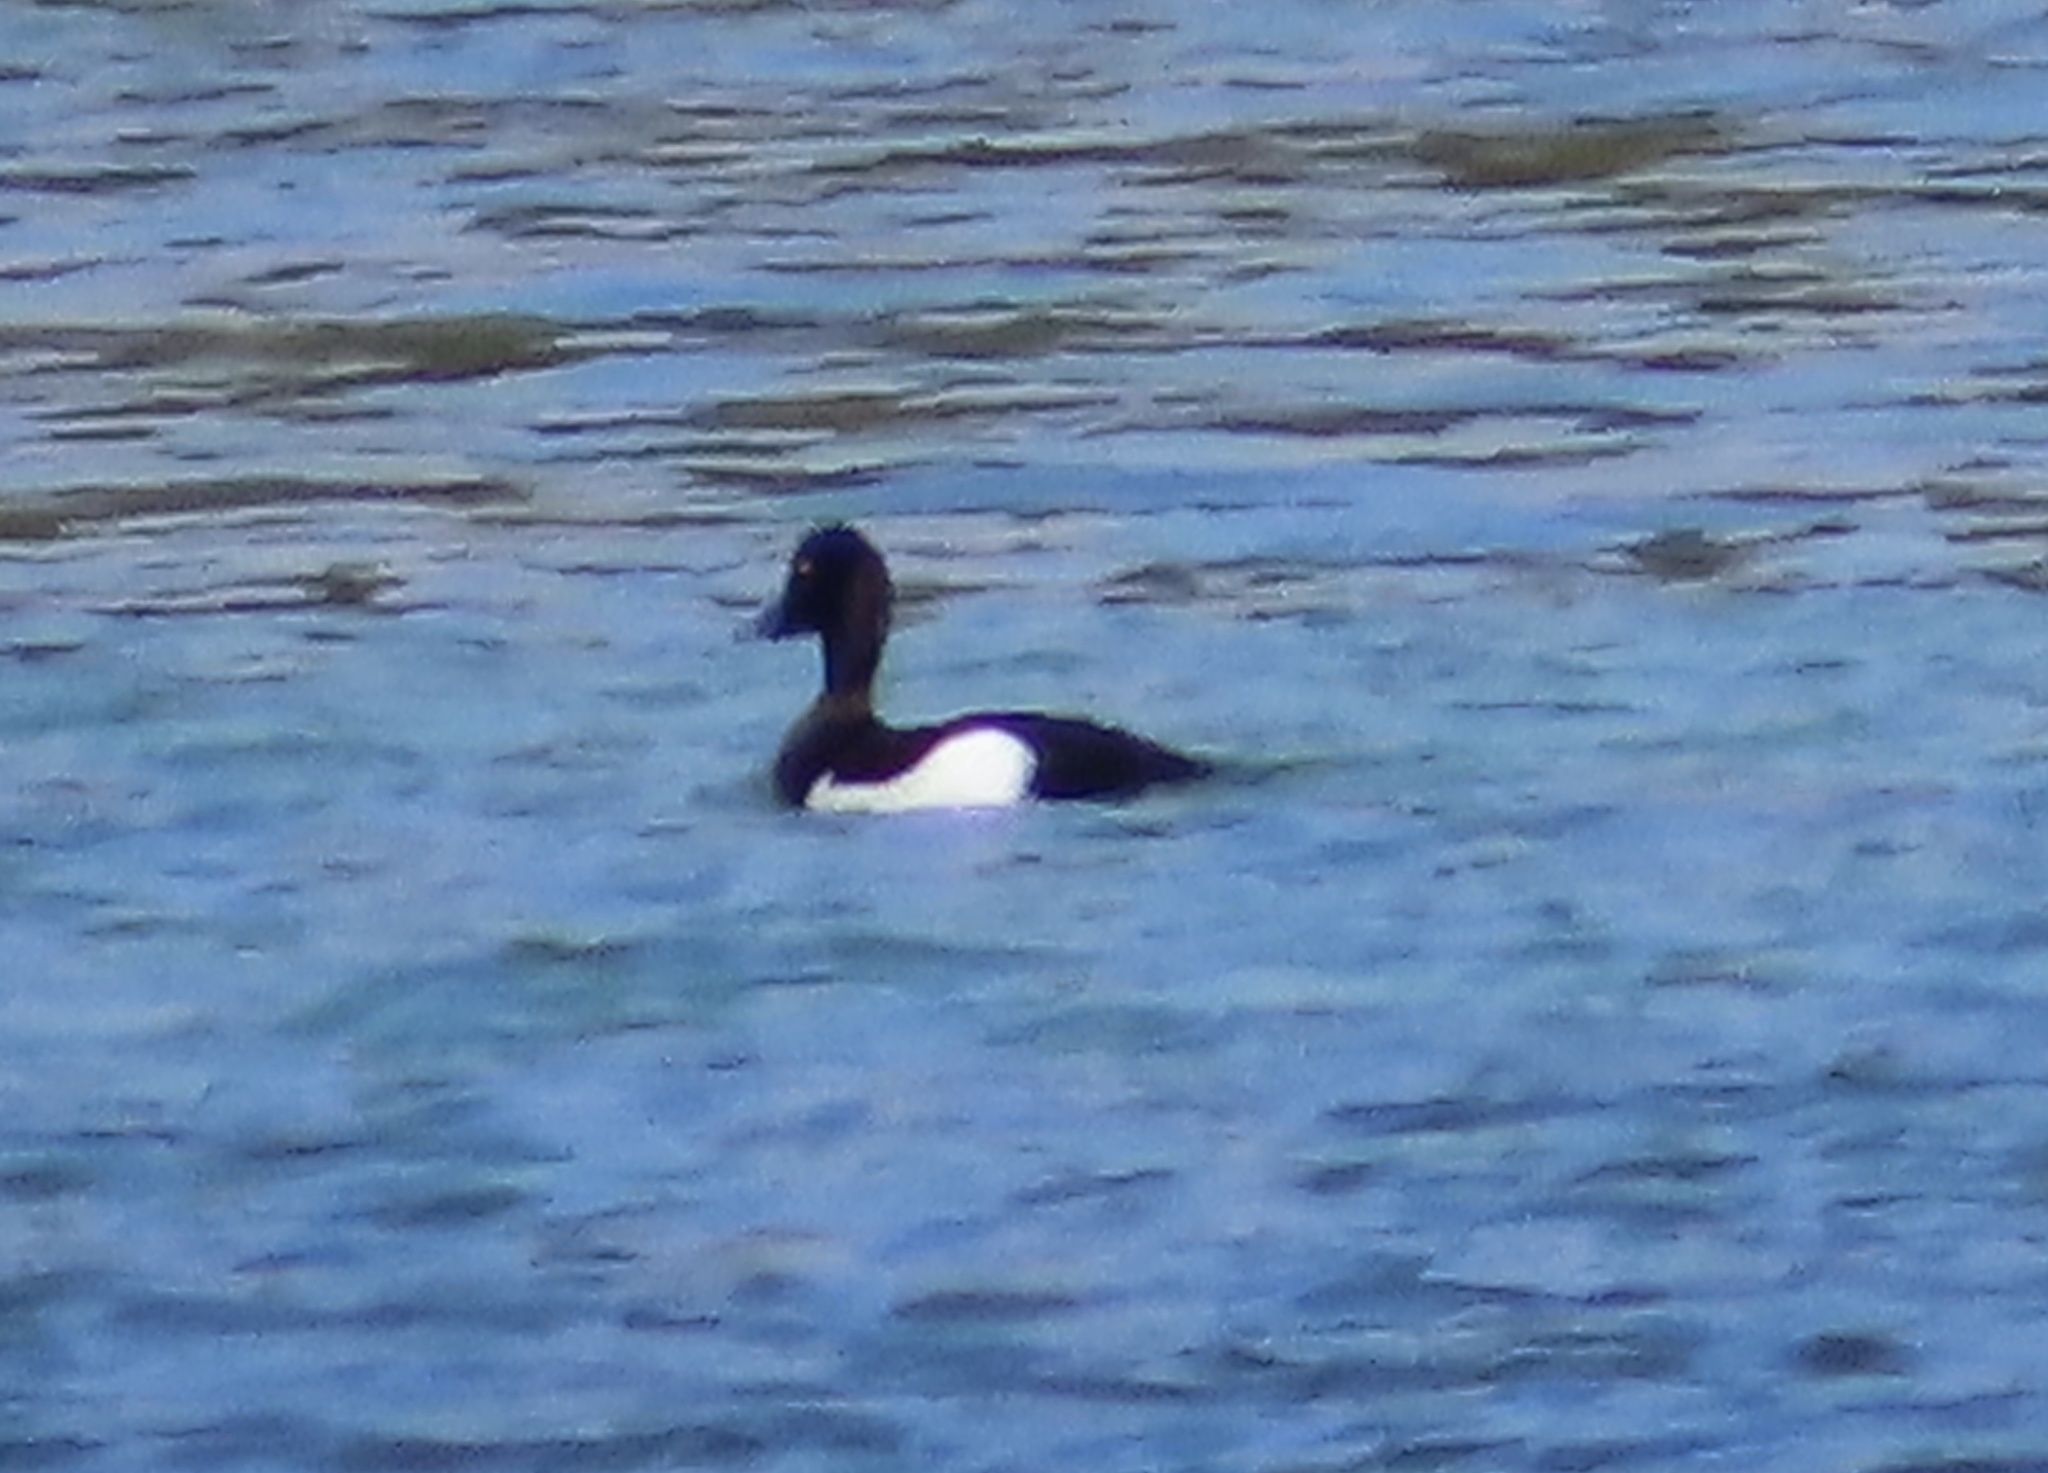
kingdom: Animalia
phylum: Chordata
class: Aves
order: Anseriformes
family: Anatidae
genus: Aythya
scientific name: Aythya fuligula
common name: Tufted duck
